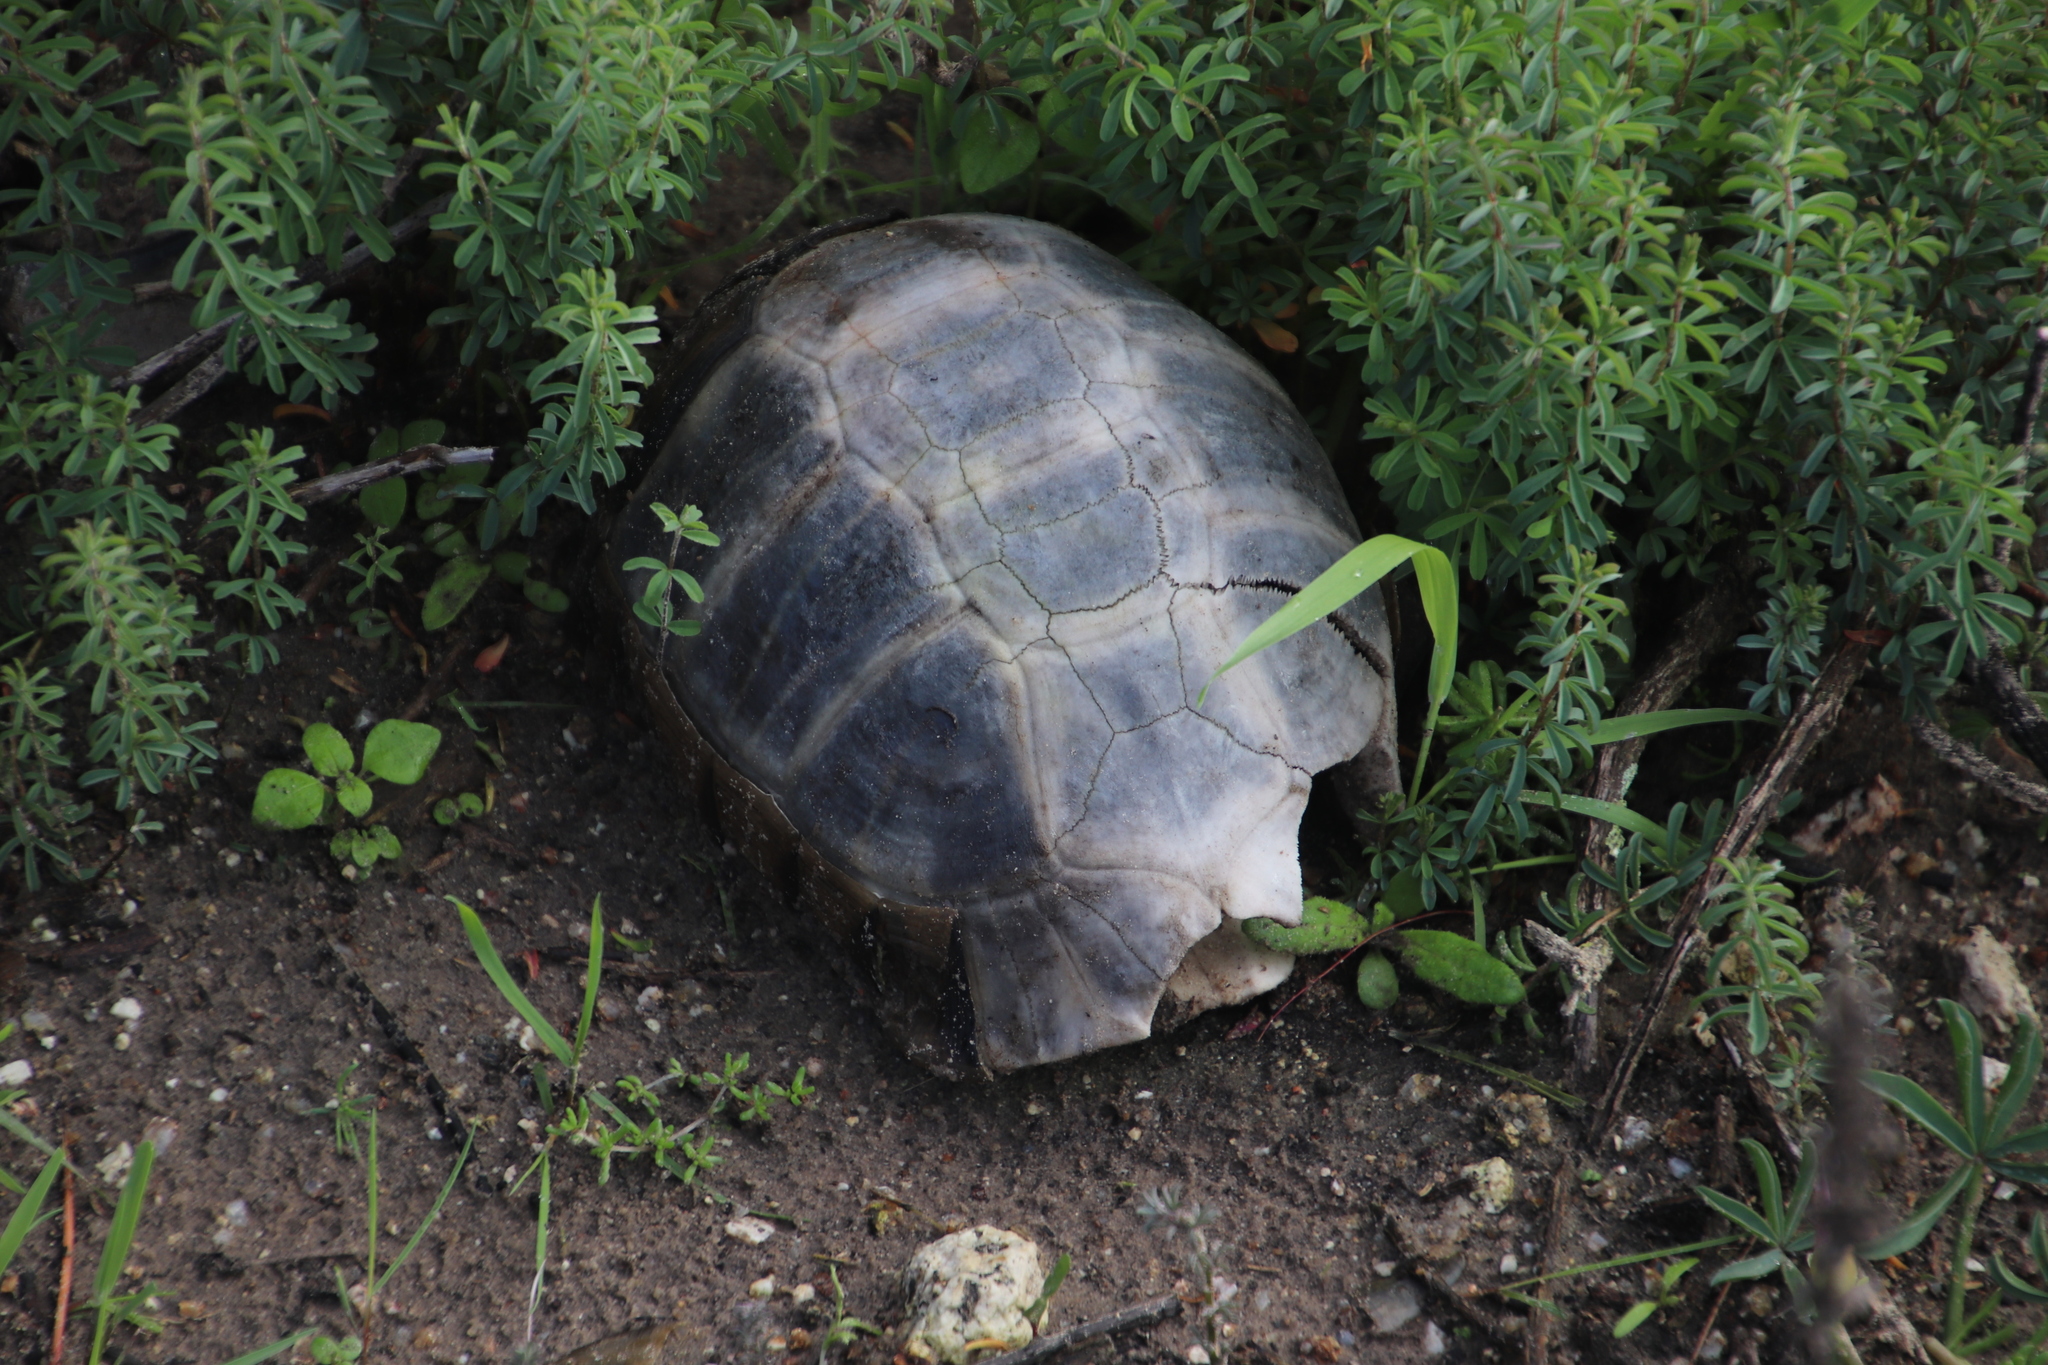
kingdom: Animalia
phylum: Chordata
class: Testudines
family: Testudinidae
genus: Chersina
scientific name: Chersina angulata
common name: South african bowsprit tortoise
